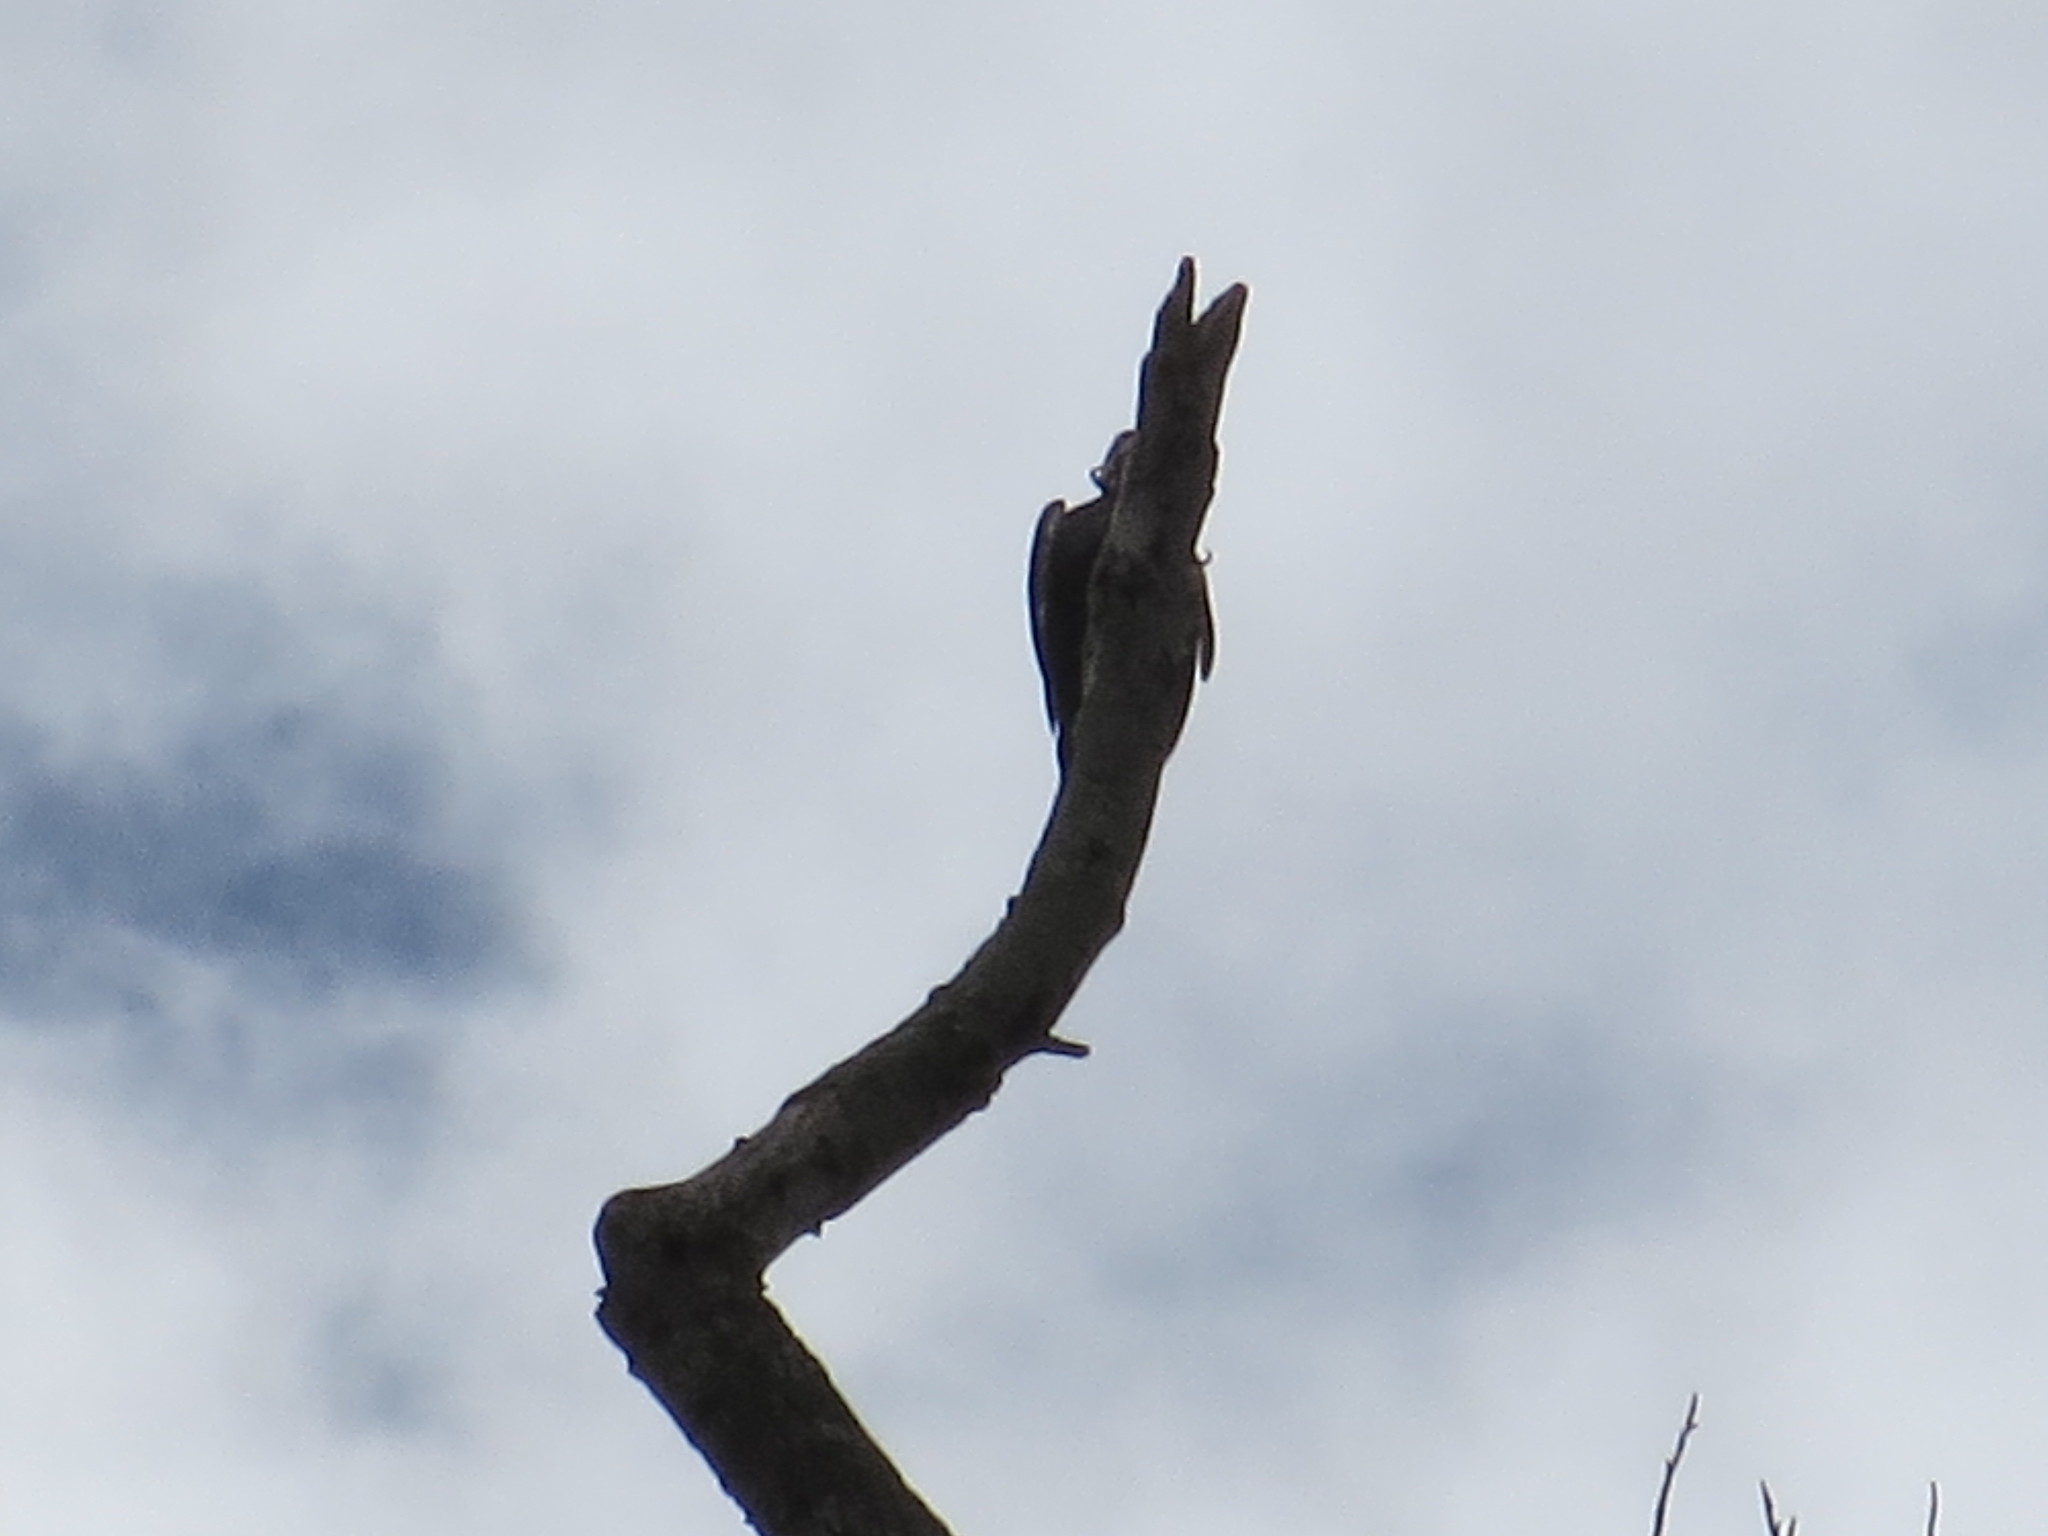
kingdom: Animalia
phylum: Chordata
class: Aves
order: Piciformes
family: Picidae
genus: Dryocopus
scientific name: Dryocopus pileatus
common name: Pileated woodpecker
